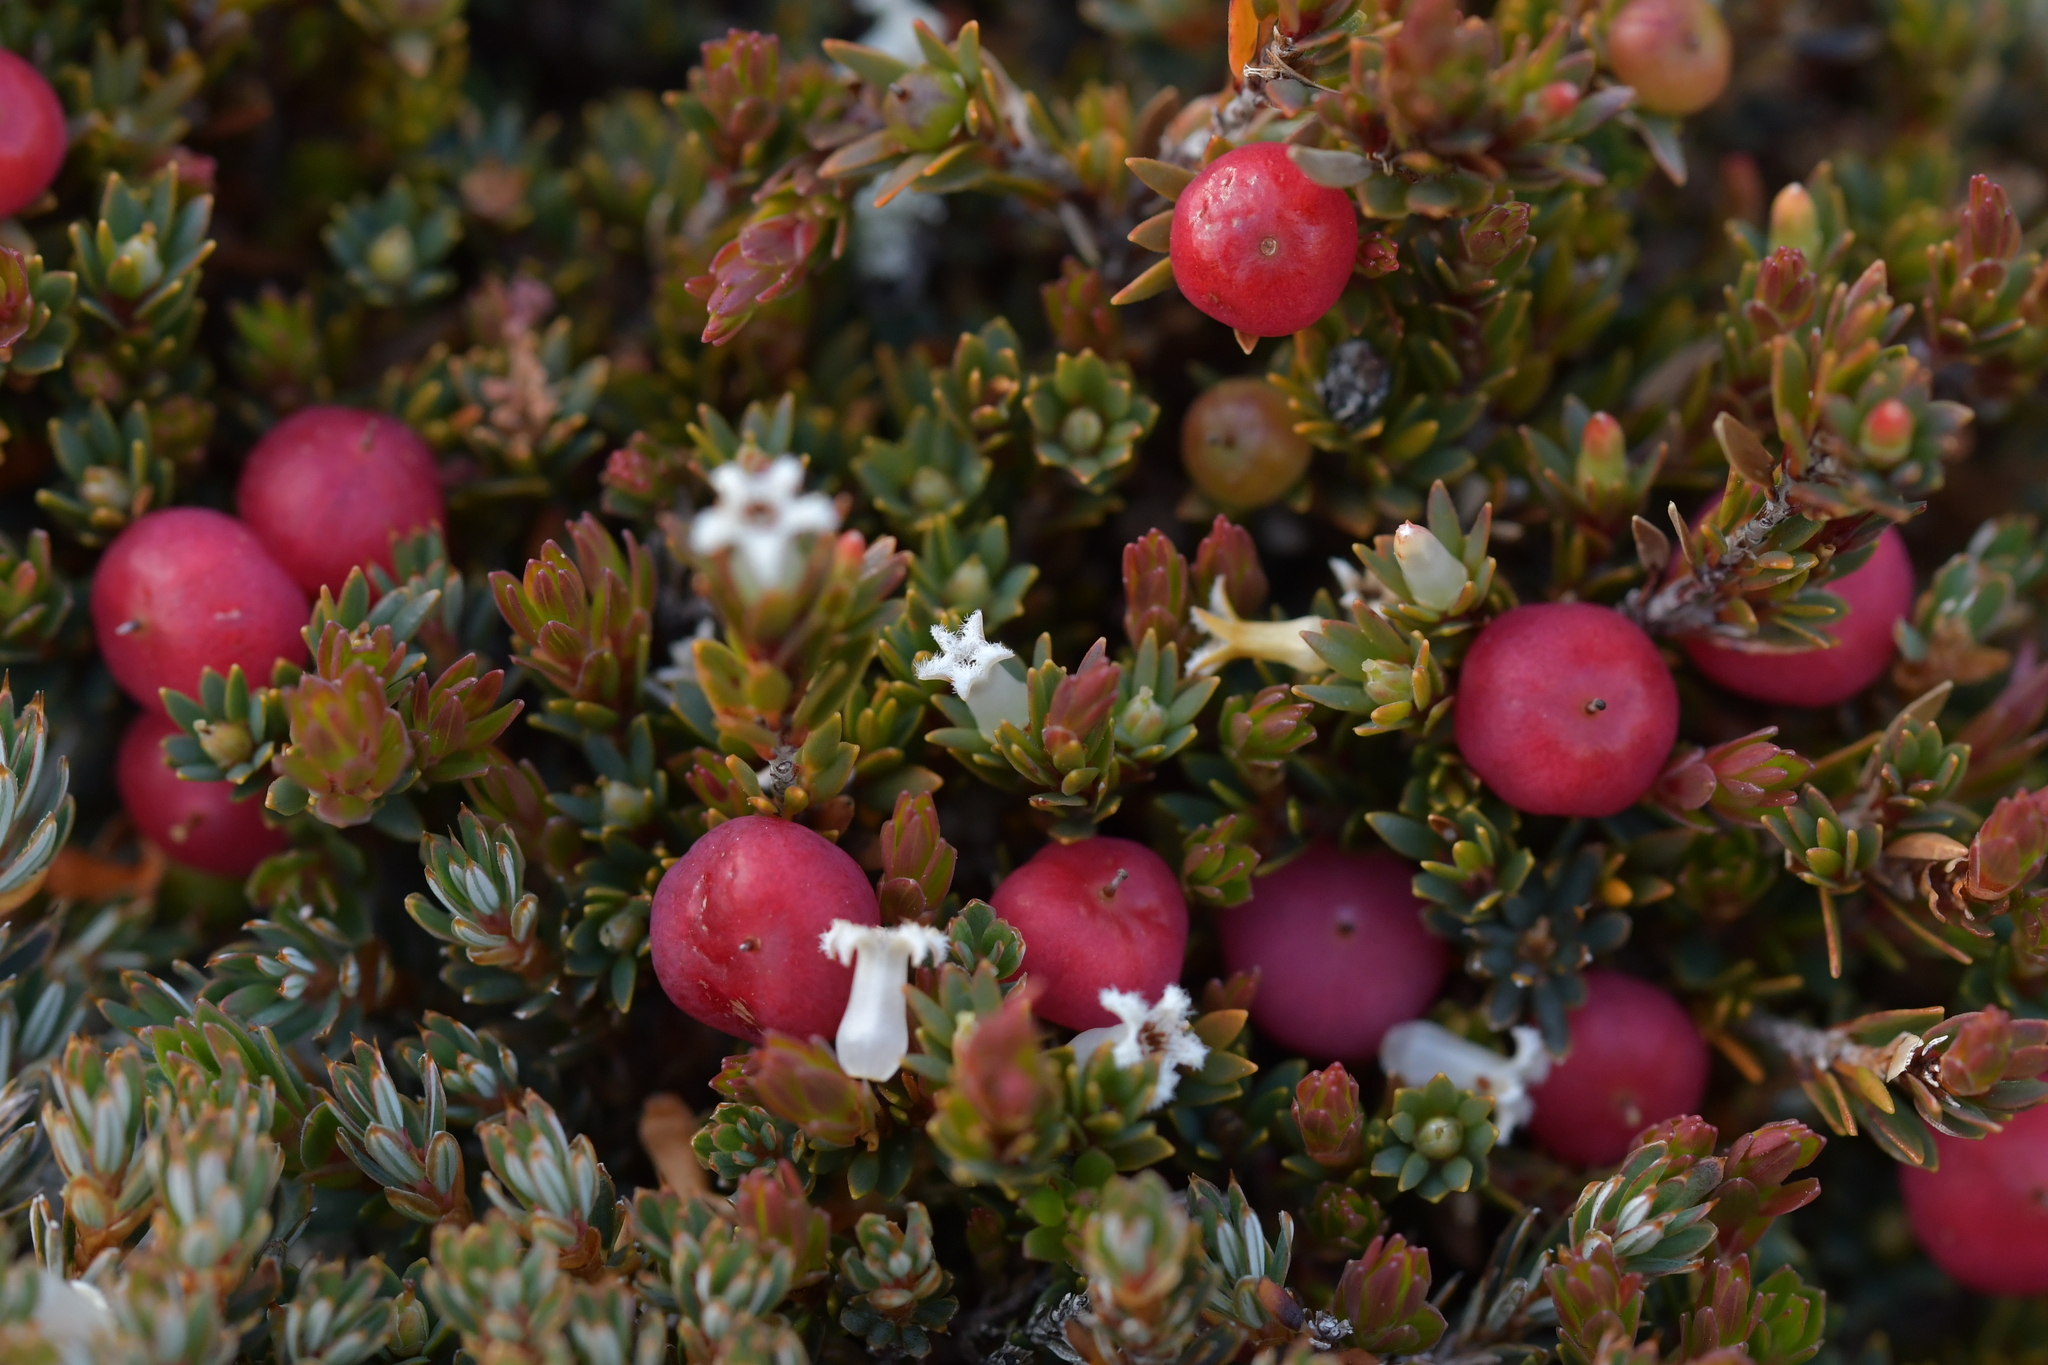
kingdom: Plantae
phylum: Tracheophyta
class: Magnoliopsida
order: Ericales
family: Ericaceae
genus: Pentachondra
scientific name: Pentachondra pumila
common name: Carpet-heath
